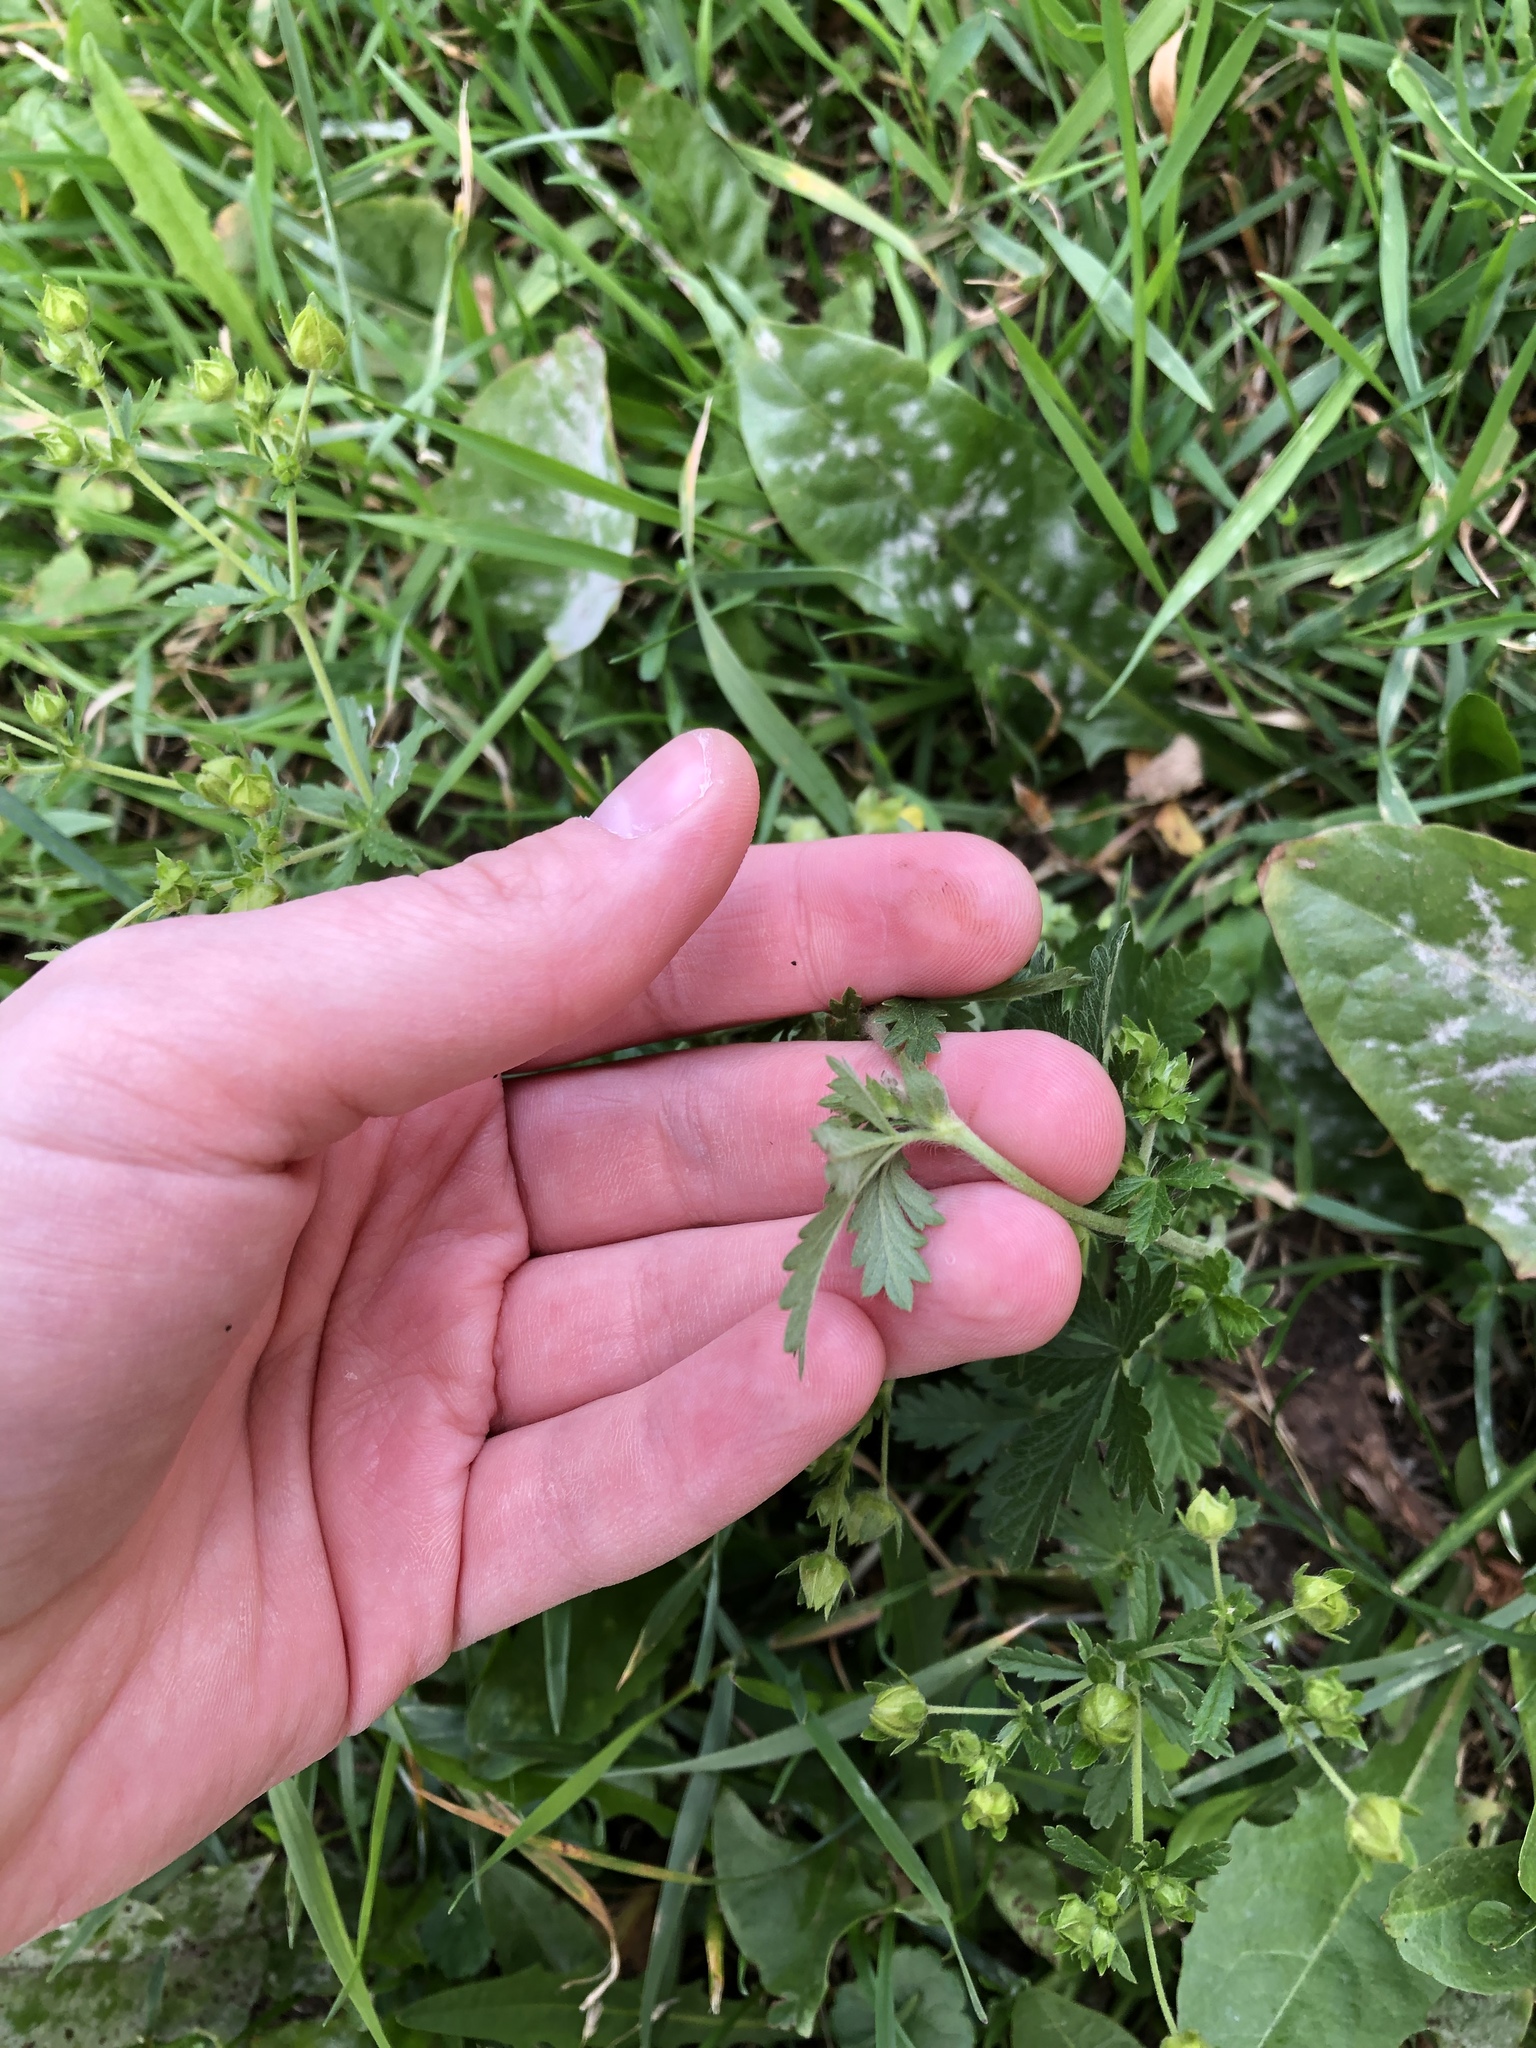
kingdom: Plantae
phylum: Tracheophyta
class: Magnoliopsida
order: Rosales
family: Rosaceae
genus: Potentilla
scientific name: Potentilla intermedia
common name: Downy cinquefoil
